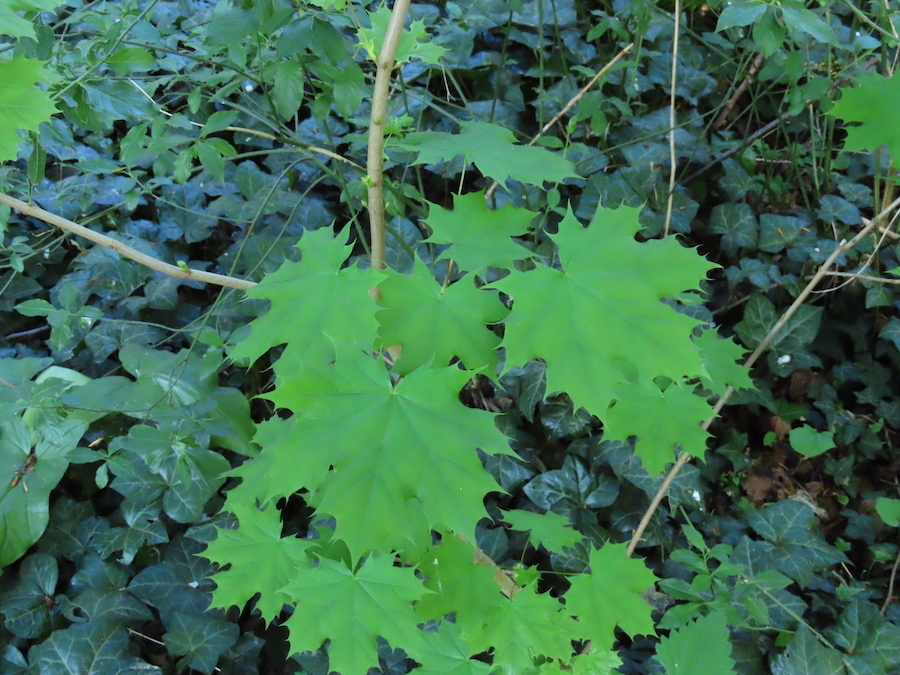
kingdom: Plantae
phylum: Tracheophyta
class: Magnoliopsida
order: Sapindales
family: Sapindaceae
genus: Acer
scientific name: Acer platanoides
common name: Norway maple
